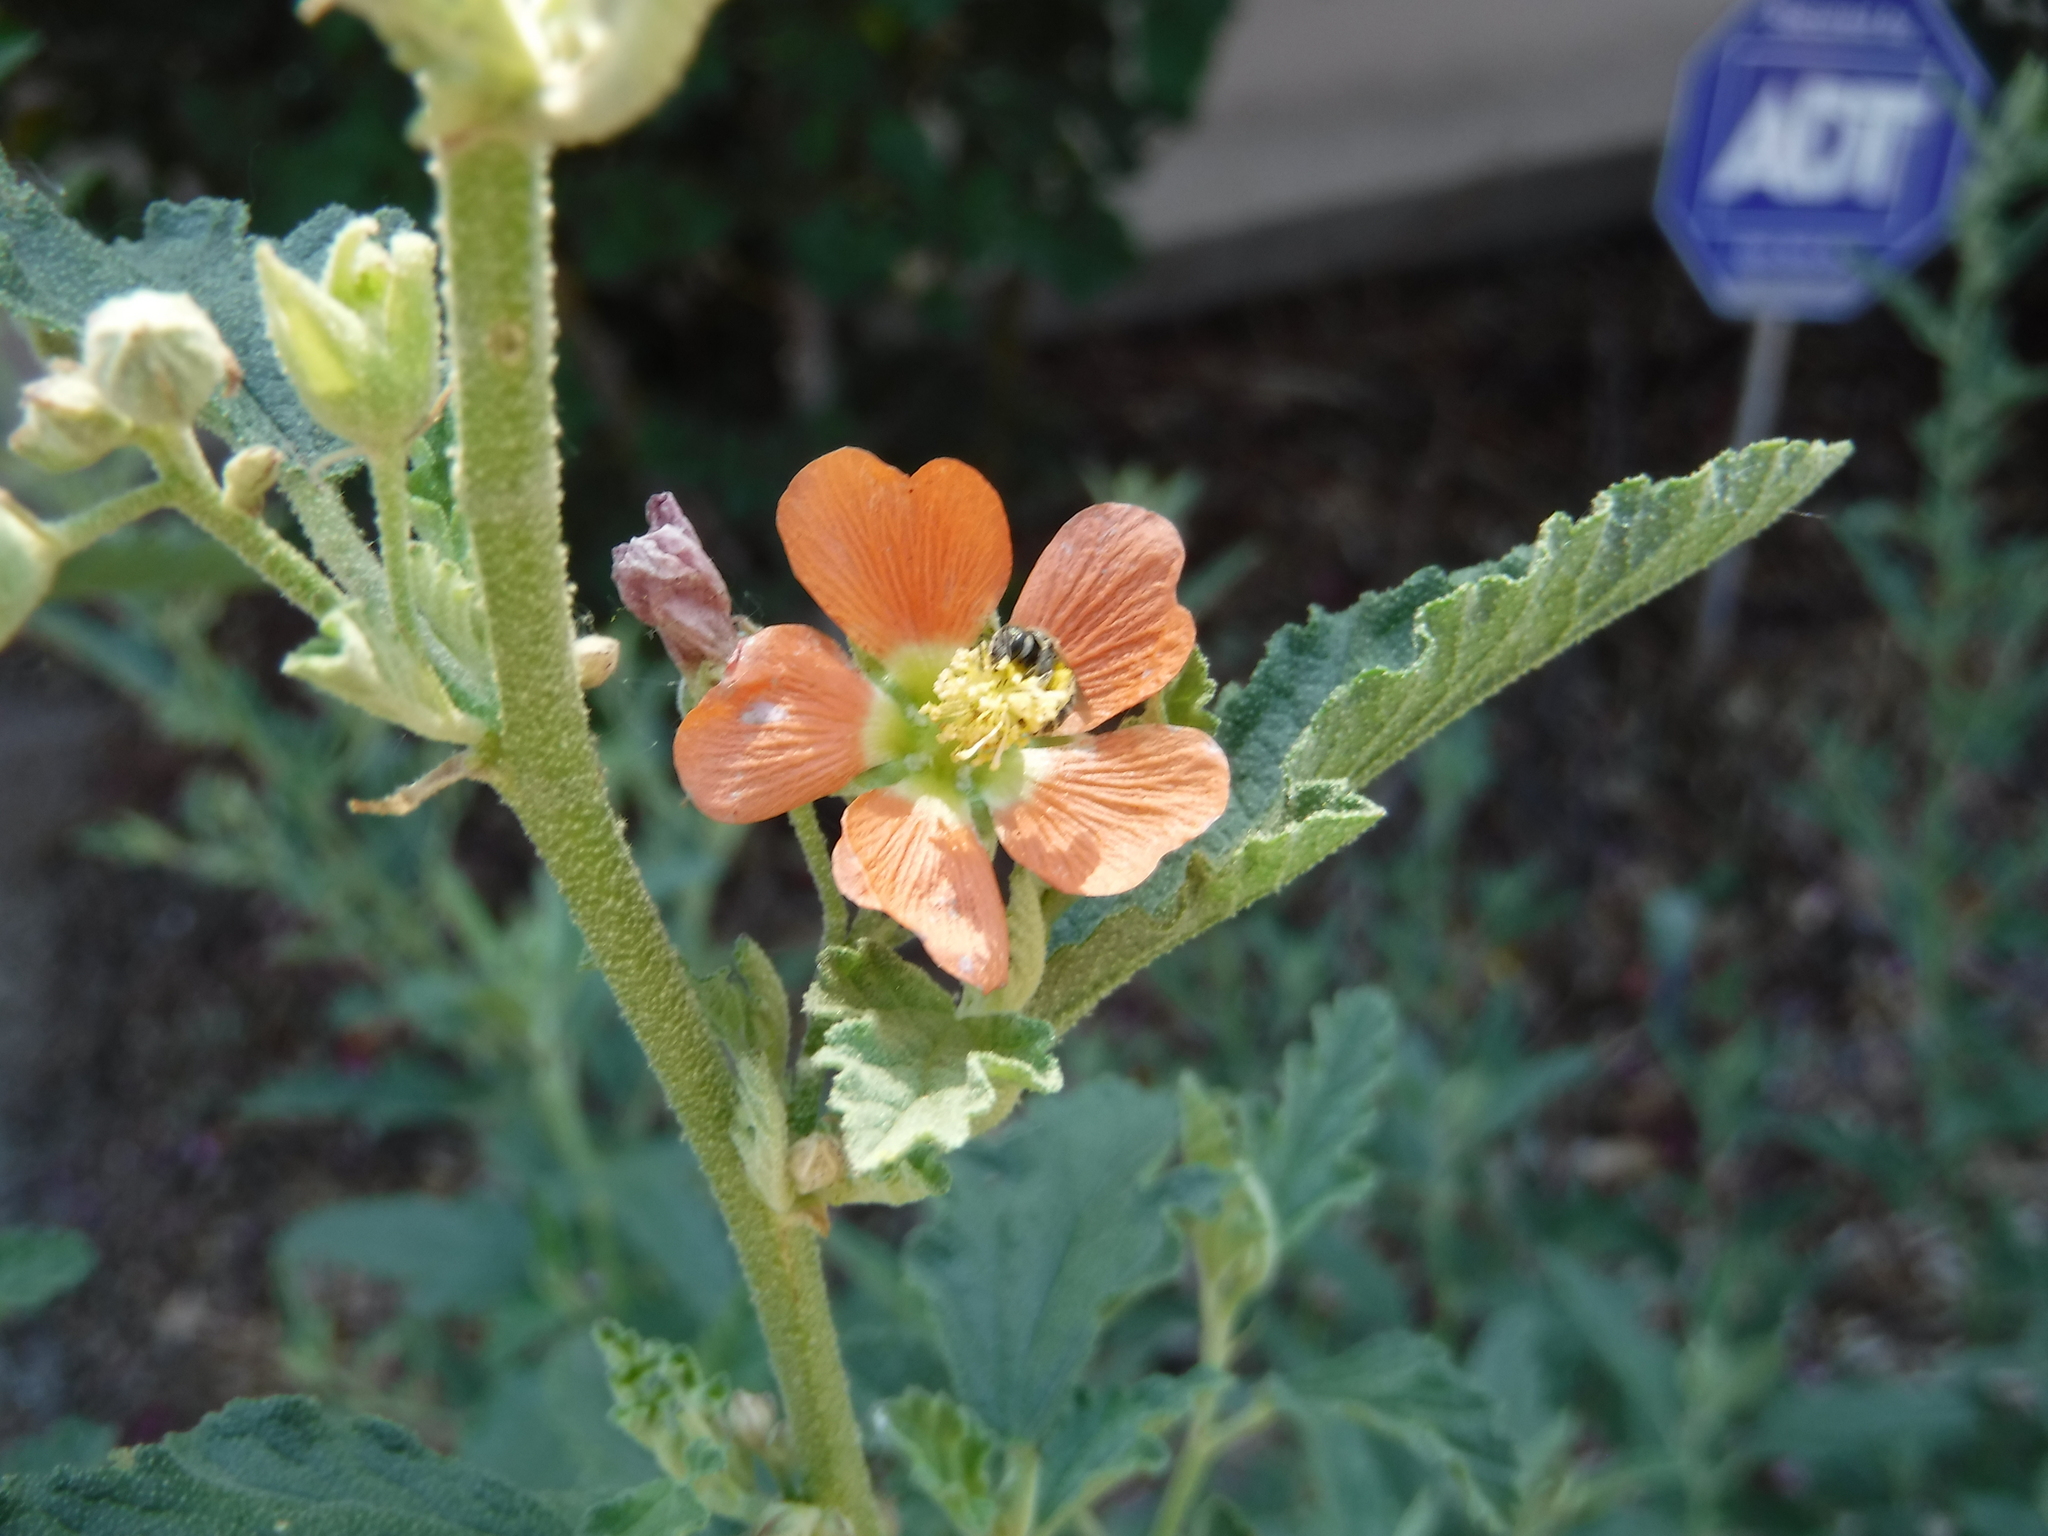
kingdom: Animalia
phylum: Arthropoda
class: Insecta
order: Hymenoptera
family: Halictidae
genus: Halictus
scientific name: Halictus tripartitus
